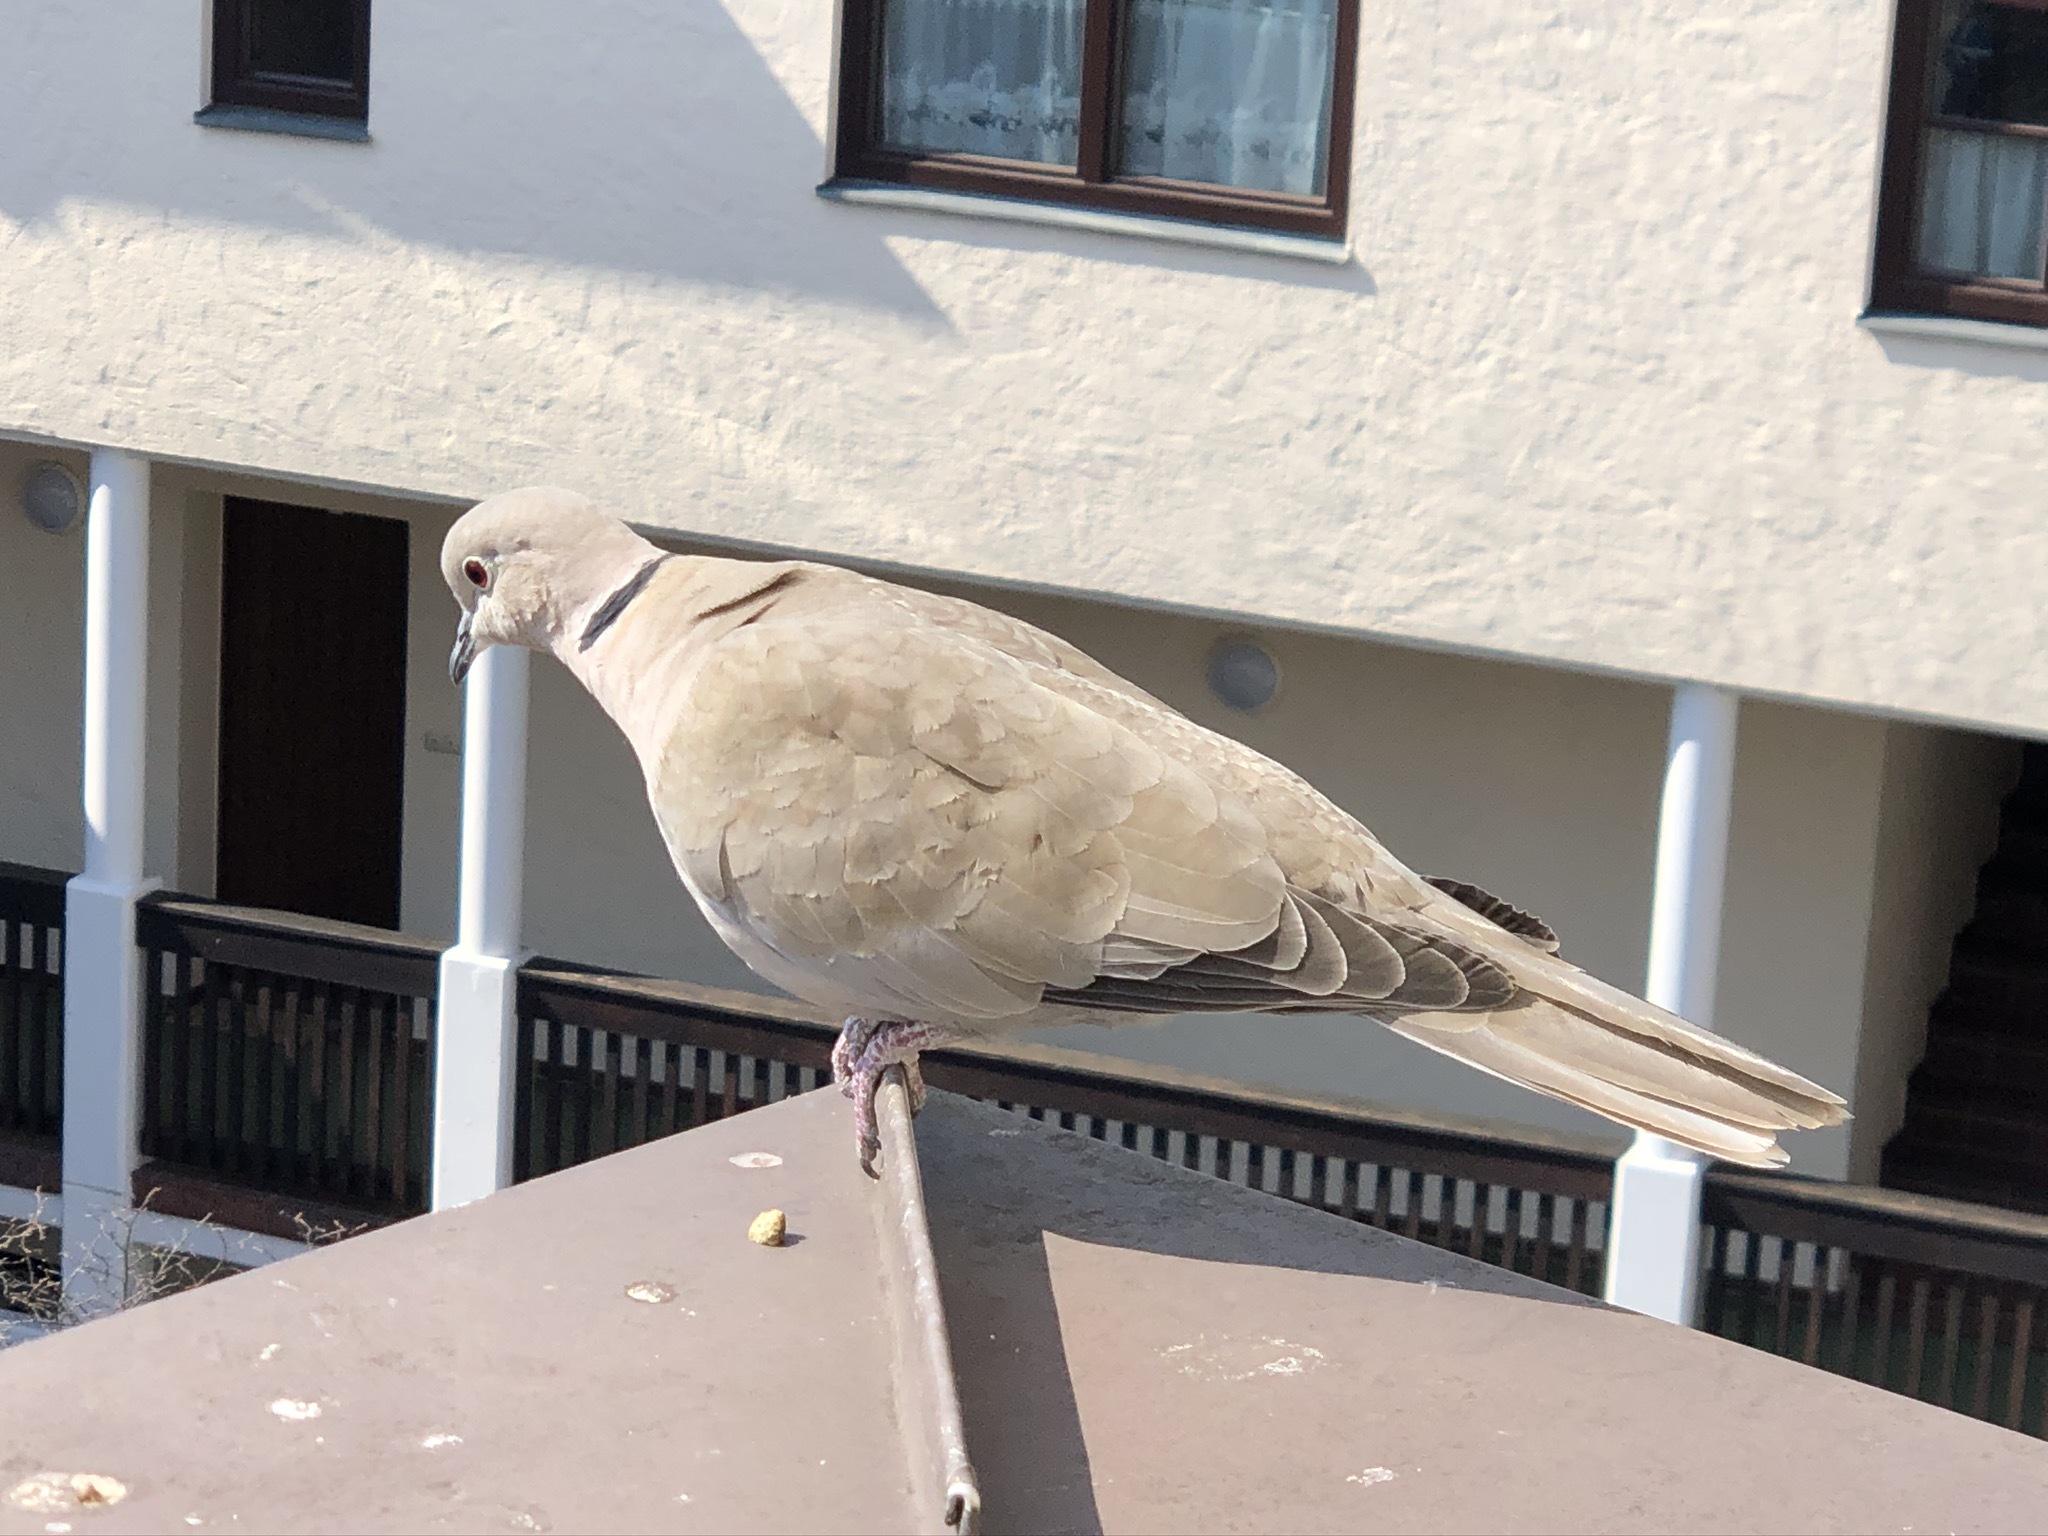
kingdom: Animalia
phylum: Chordata
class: Aves
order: Columbiformes
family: Columbidae
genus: Streptopelia
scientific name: Streptopelia decaocto
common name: Eurasian collared dove
